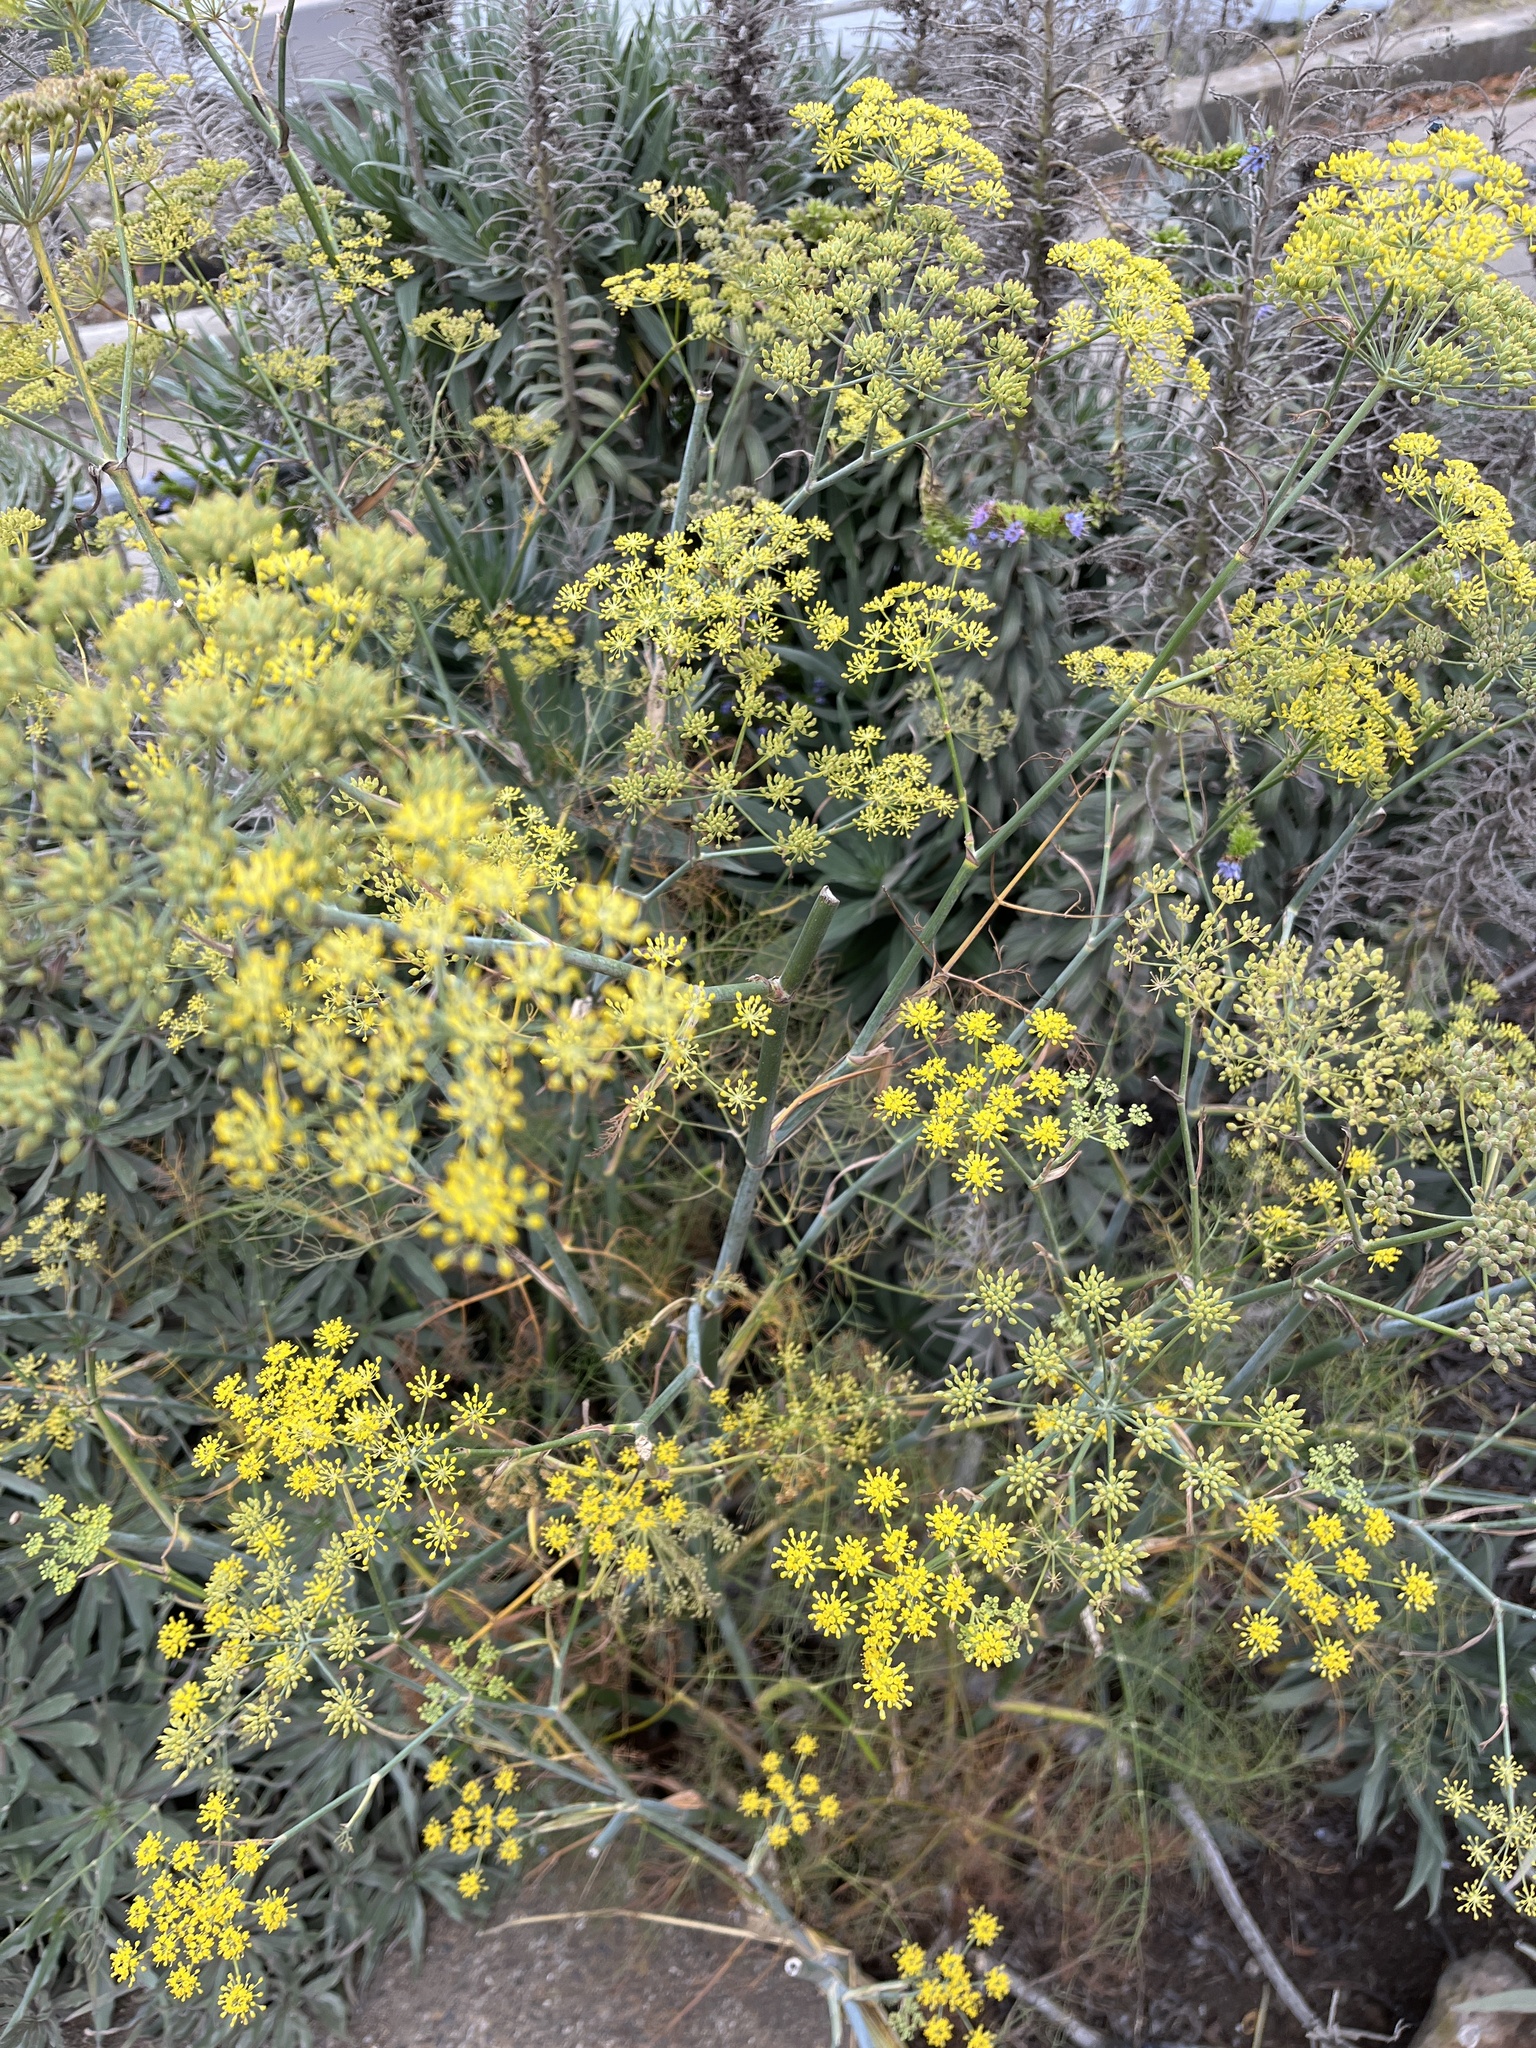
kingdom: Plantae
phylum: Tracheophyta
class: Magnoliopsida
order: Apiales
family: Apiaceae
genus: Foeniculum
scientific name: Foeniculum vulgare
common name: Fennel
